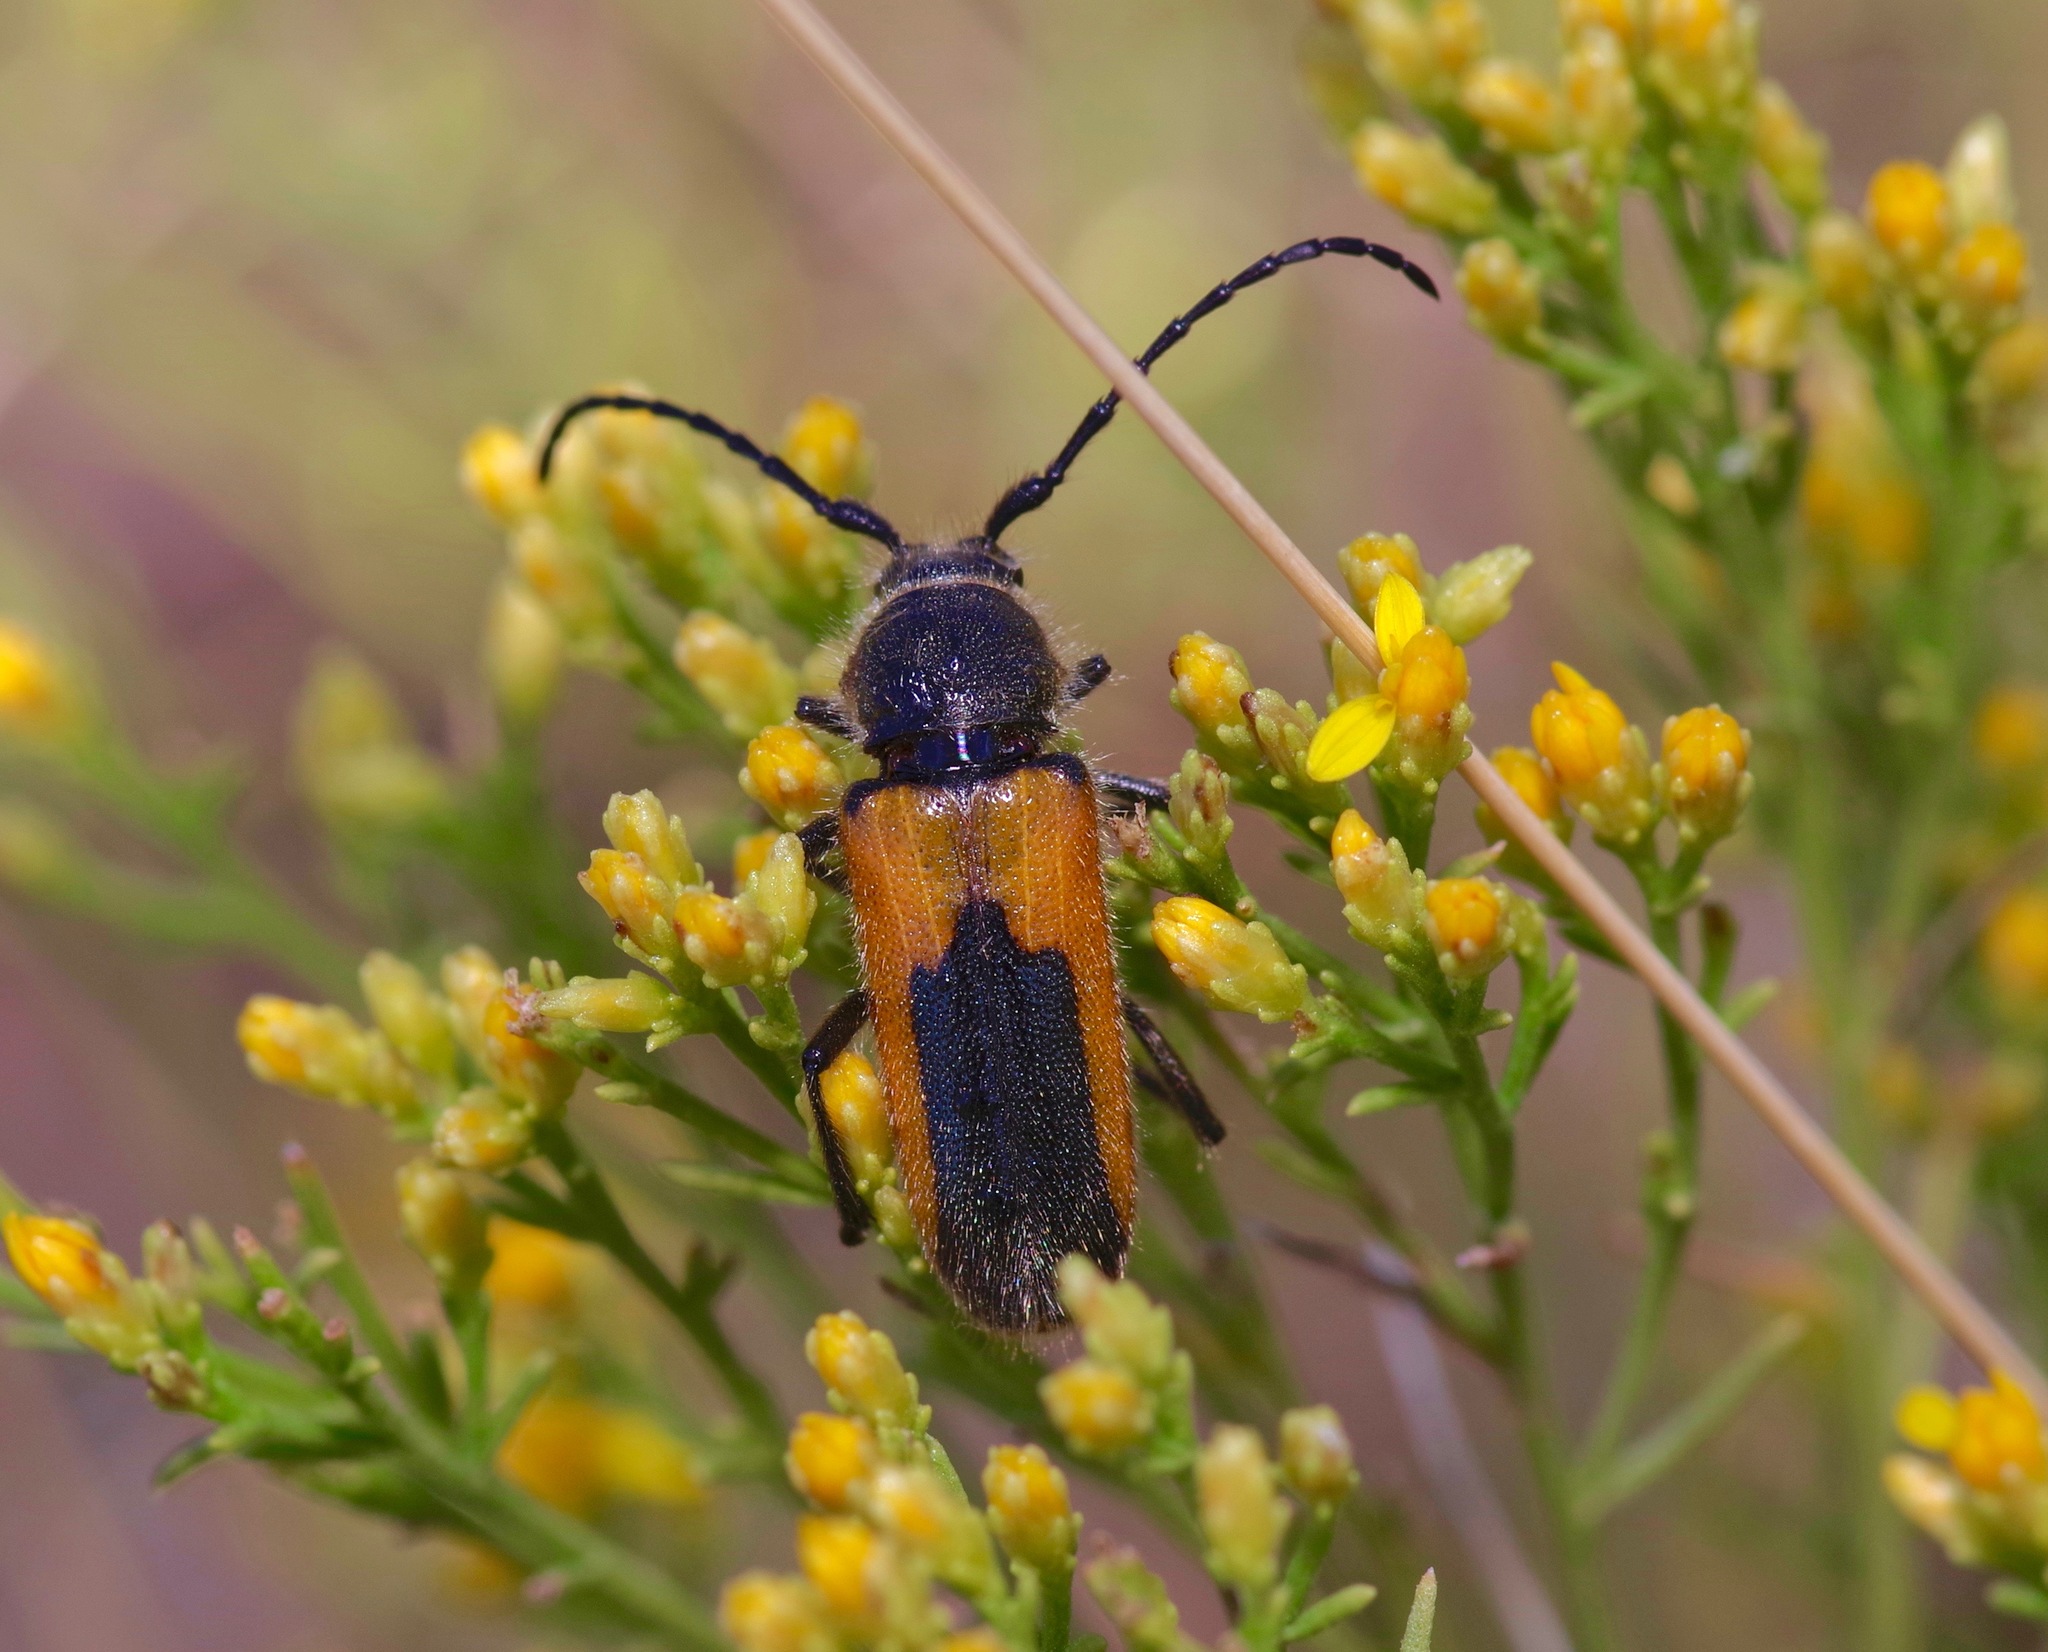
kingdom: Animalia
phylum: Arthropoda
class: Insecta
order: Coleoptera
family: Cerambycidae
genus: Crossidius
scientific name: Crossidius pulchellus
